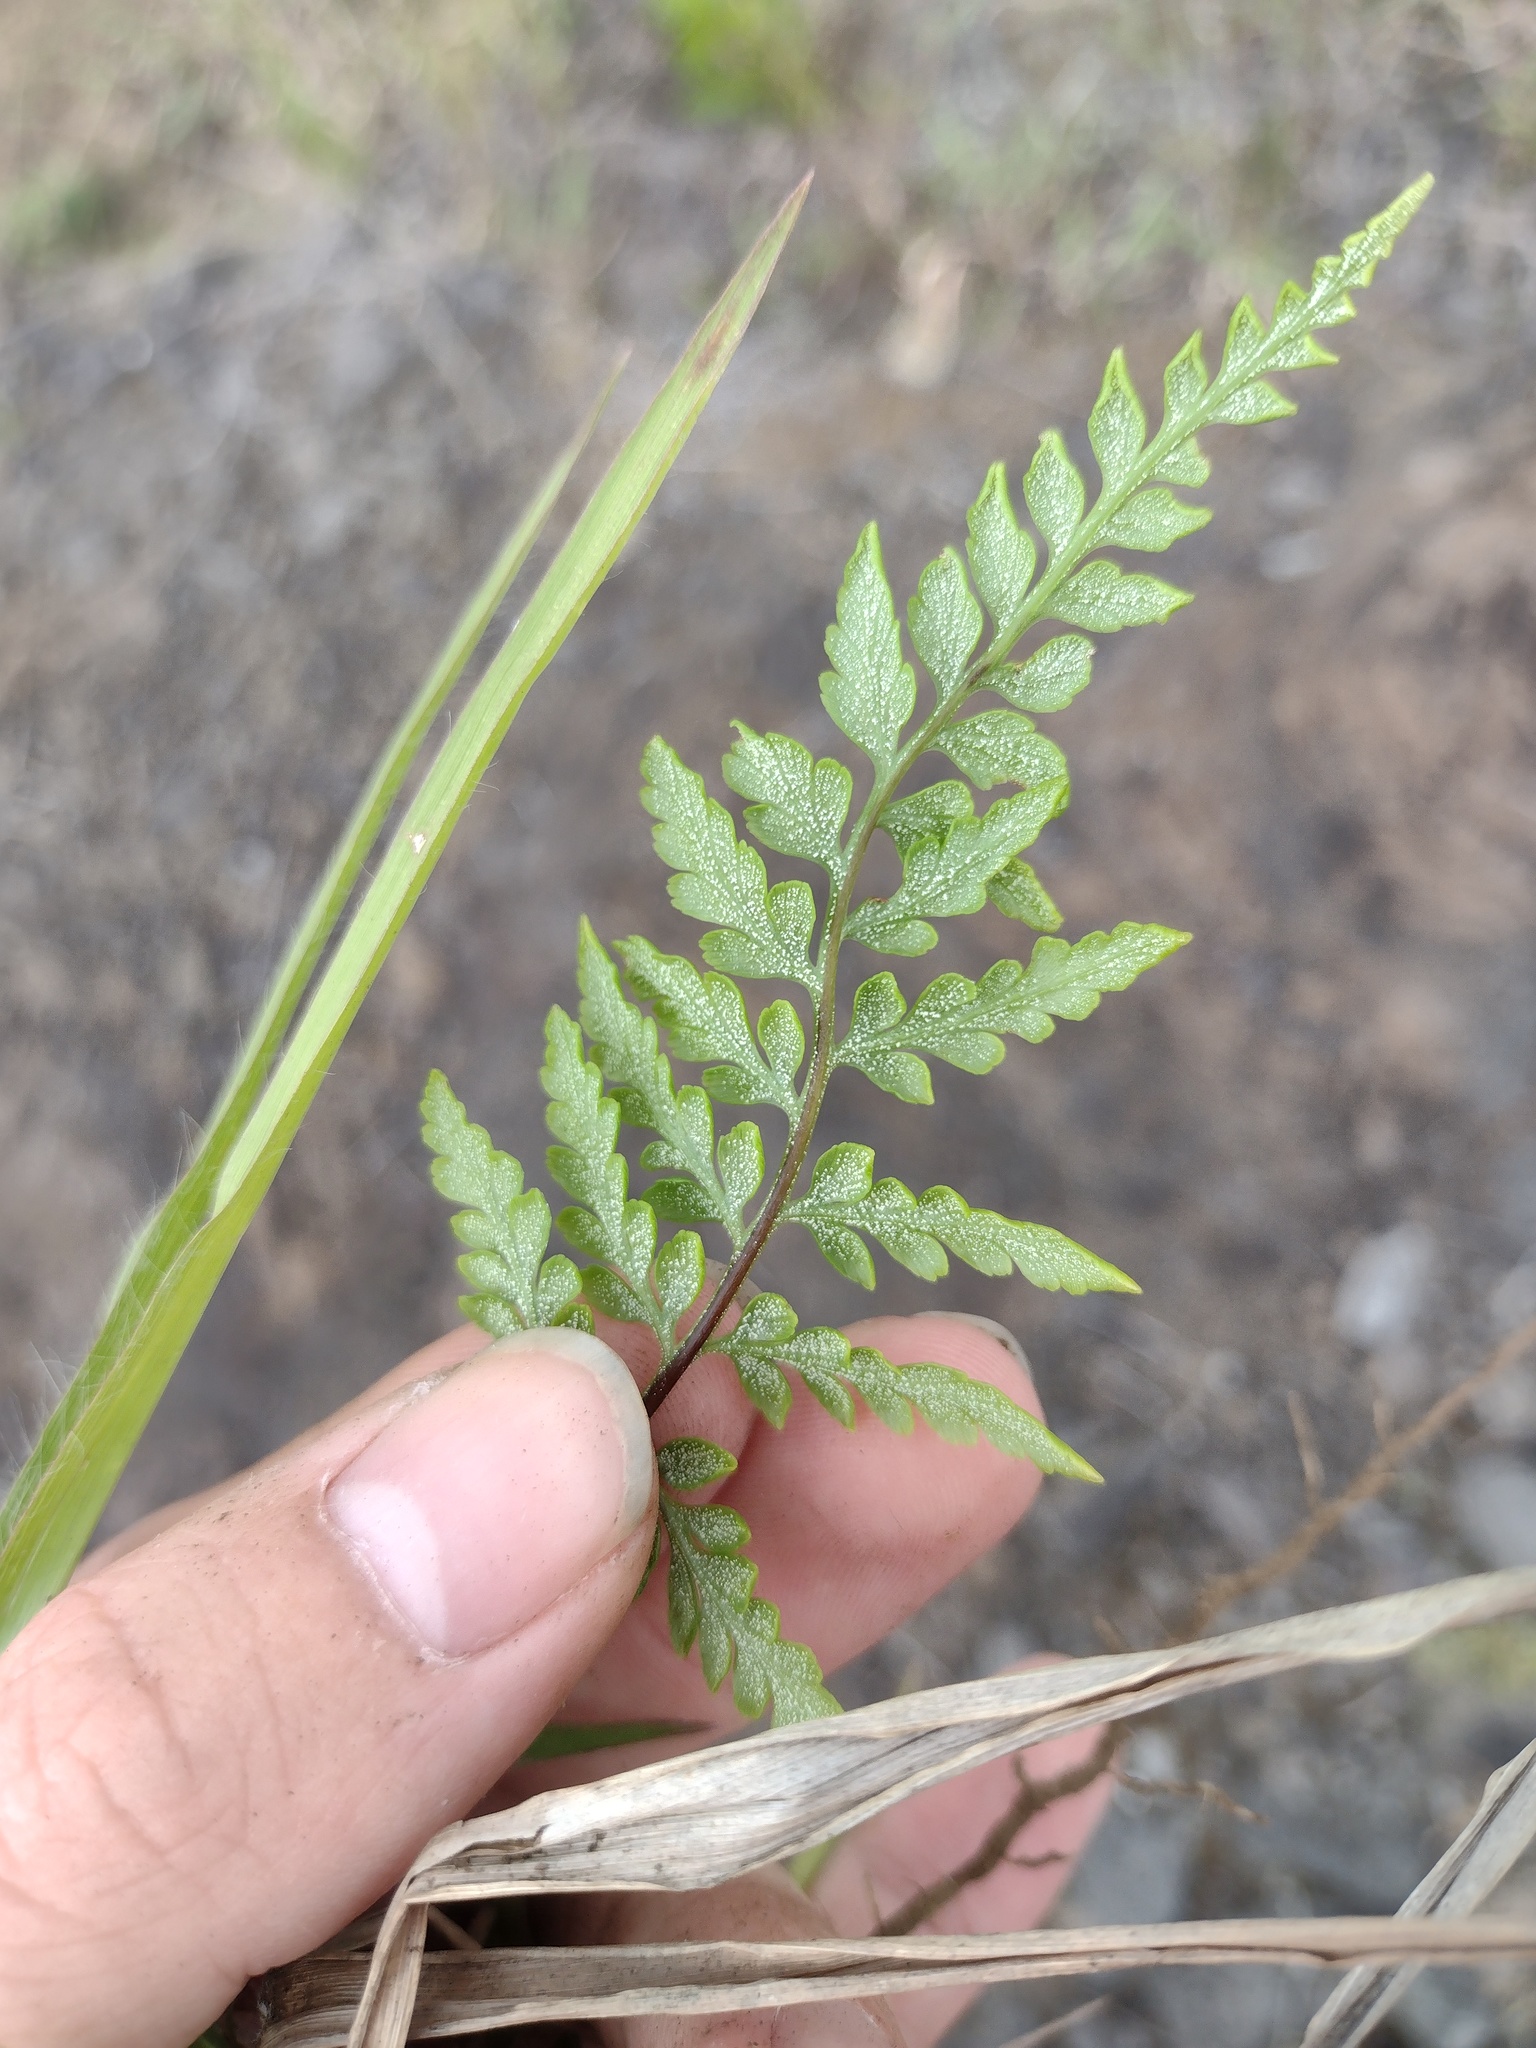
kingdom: Plantae
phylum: Tracheophyta
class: Polypodiopsida
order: Polypodiales
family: Pteridaceae
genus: Pityrogramma
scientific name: Pityrogramma calomelanos
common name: Dixie silverback fern
